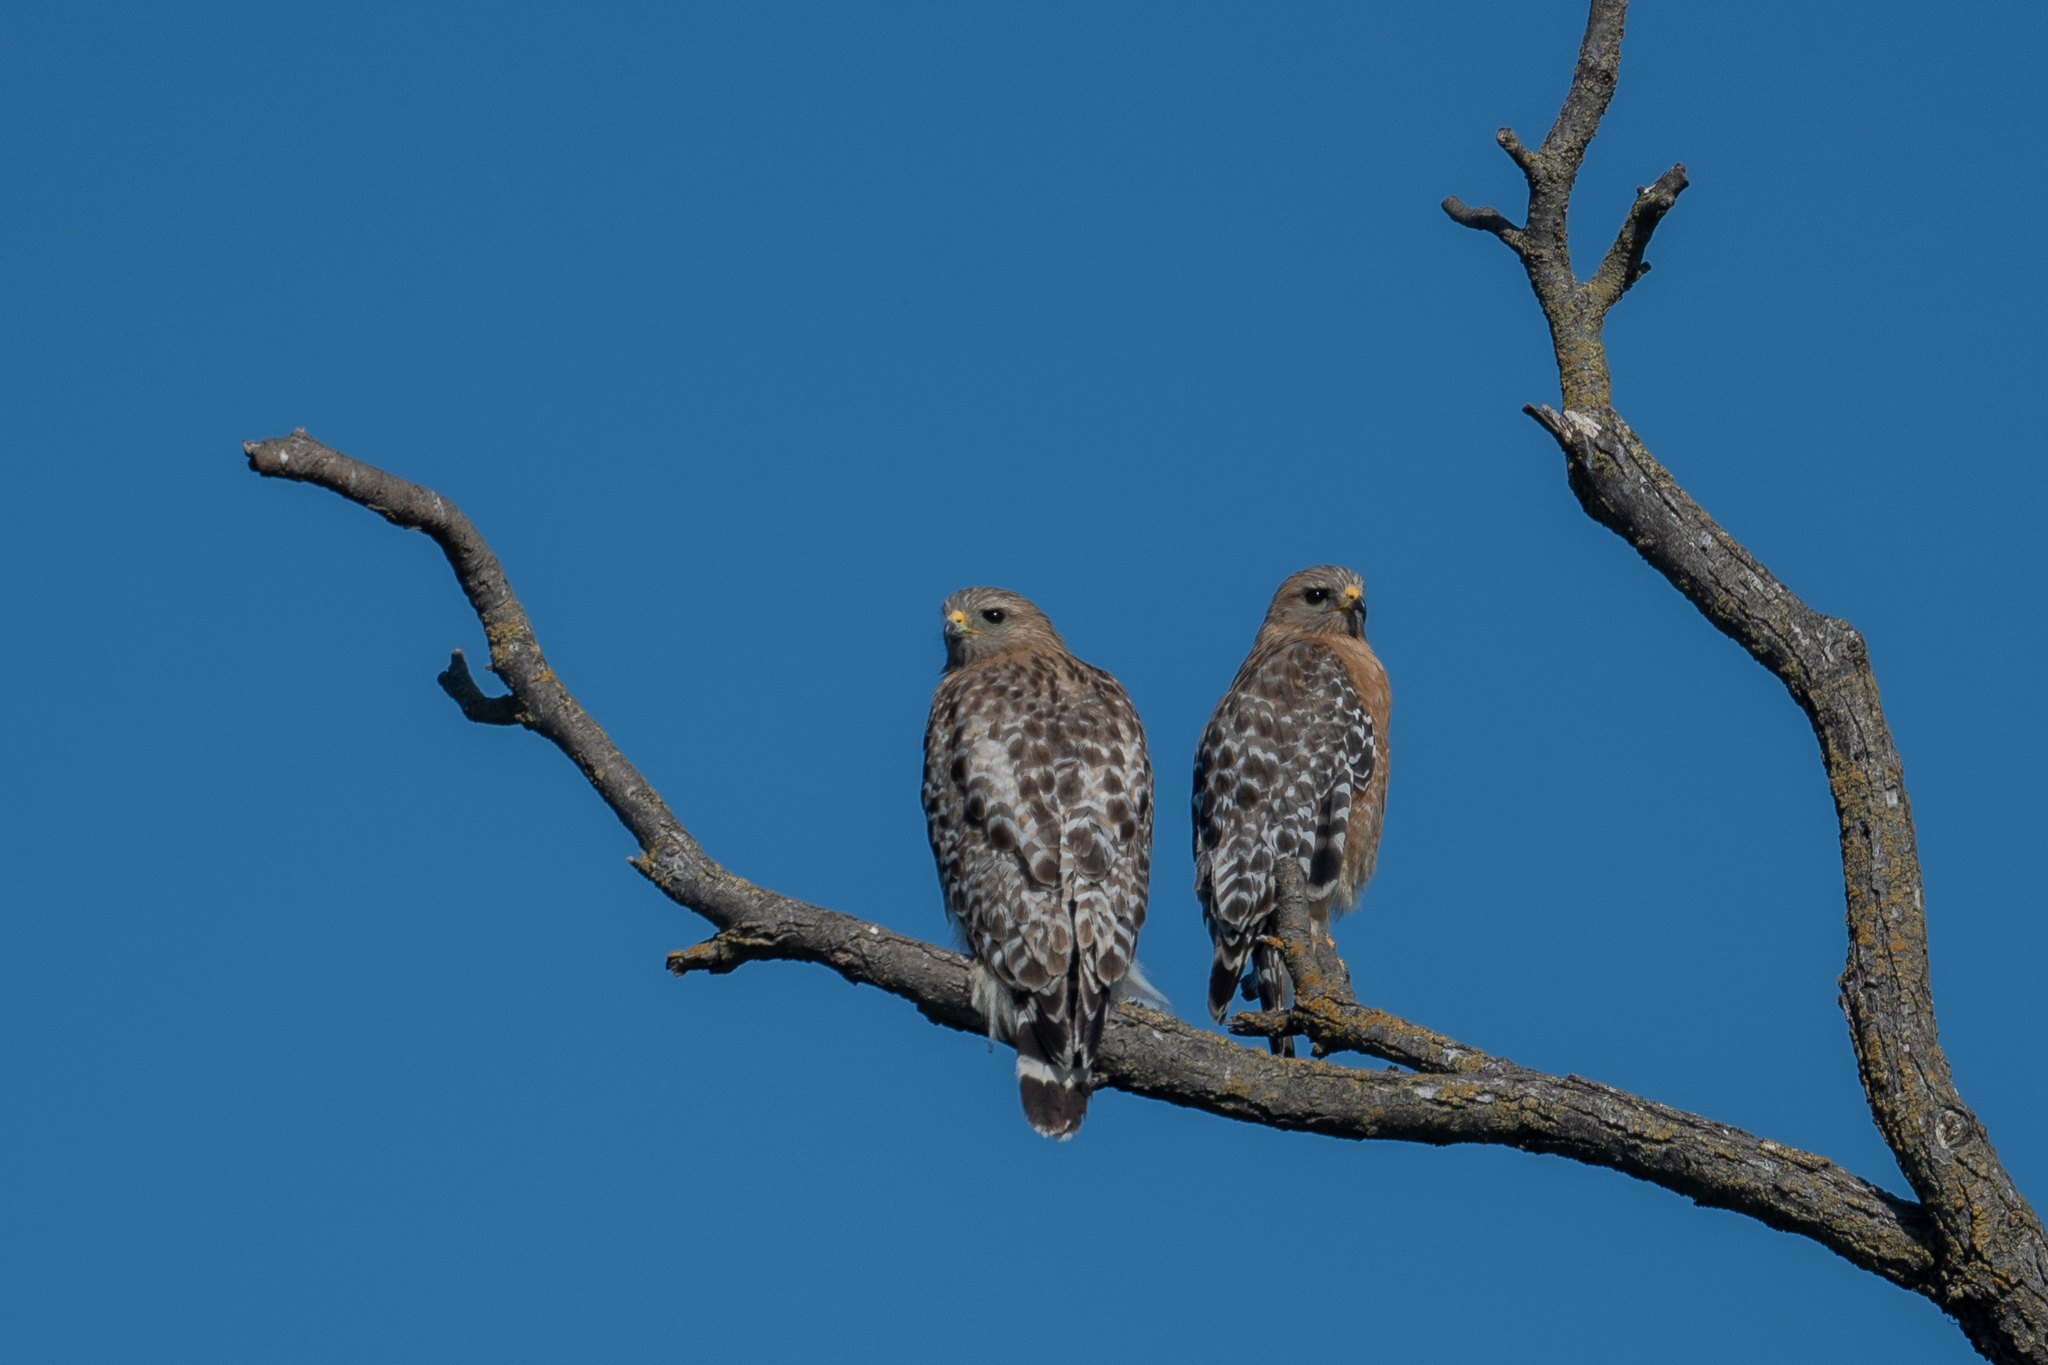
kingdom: Animalia
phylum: Chordata
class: Aves
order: Accipitriformes
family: Accipitridae
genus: Buteo
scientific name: Buteo lineatus
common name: Red-shouldered hawk
